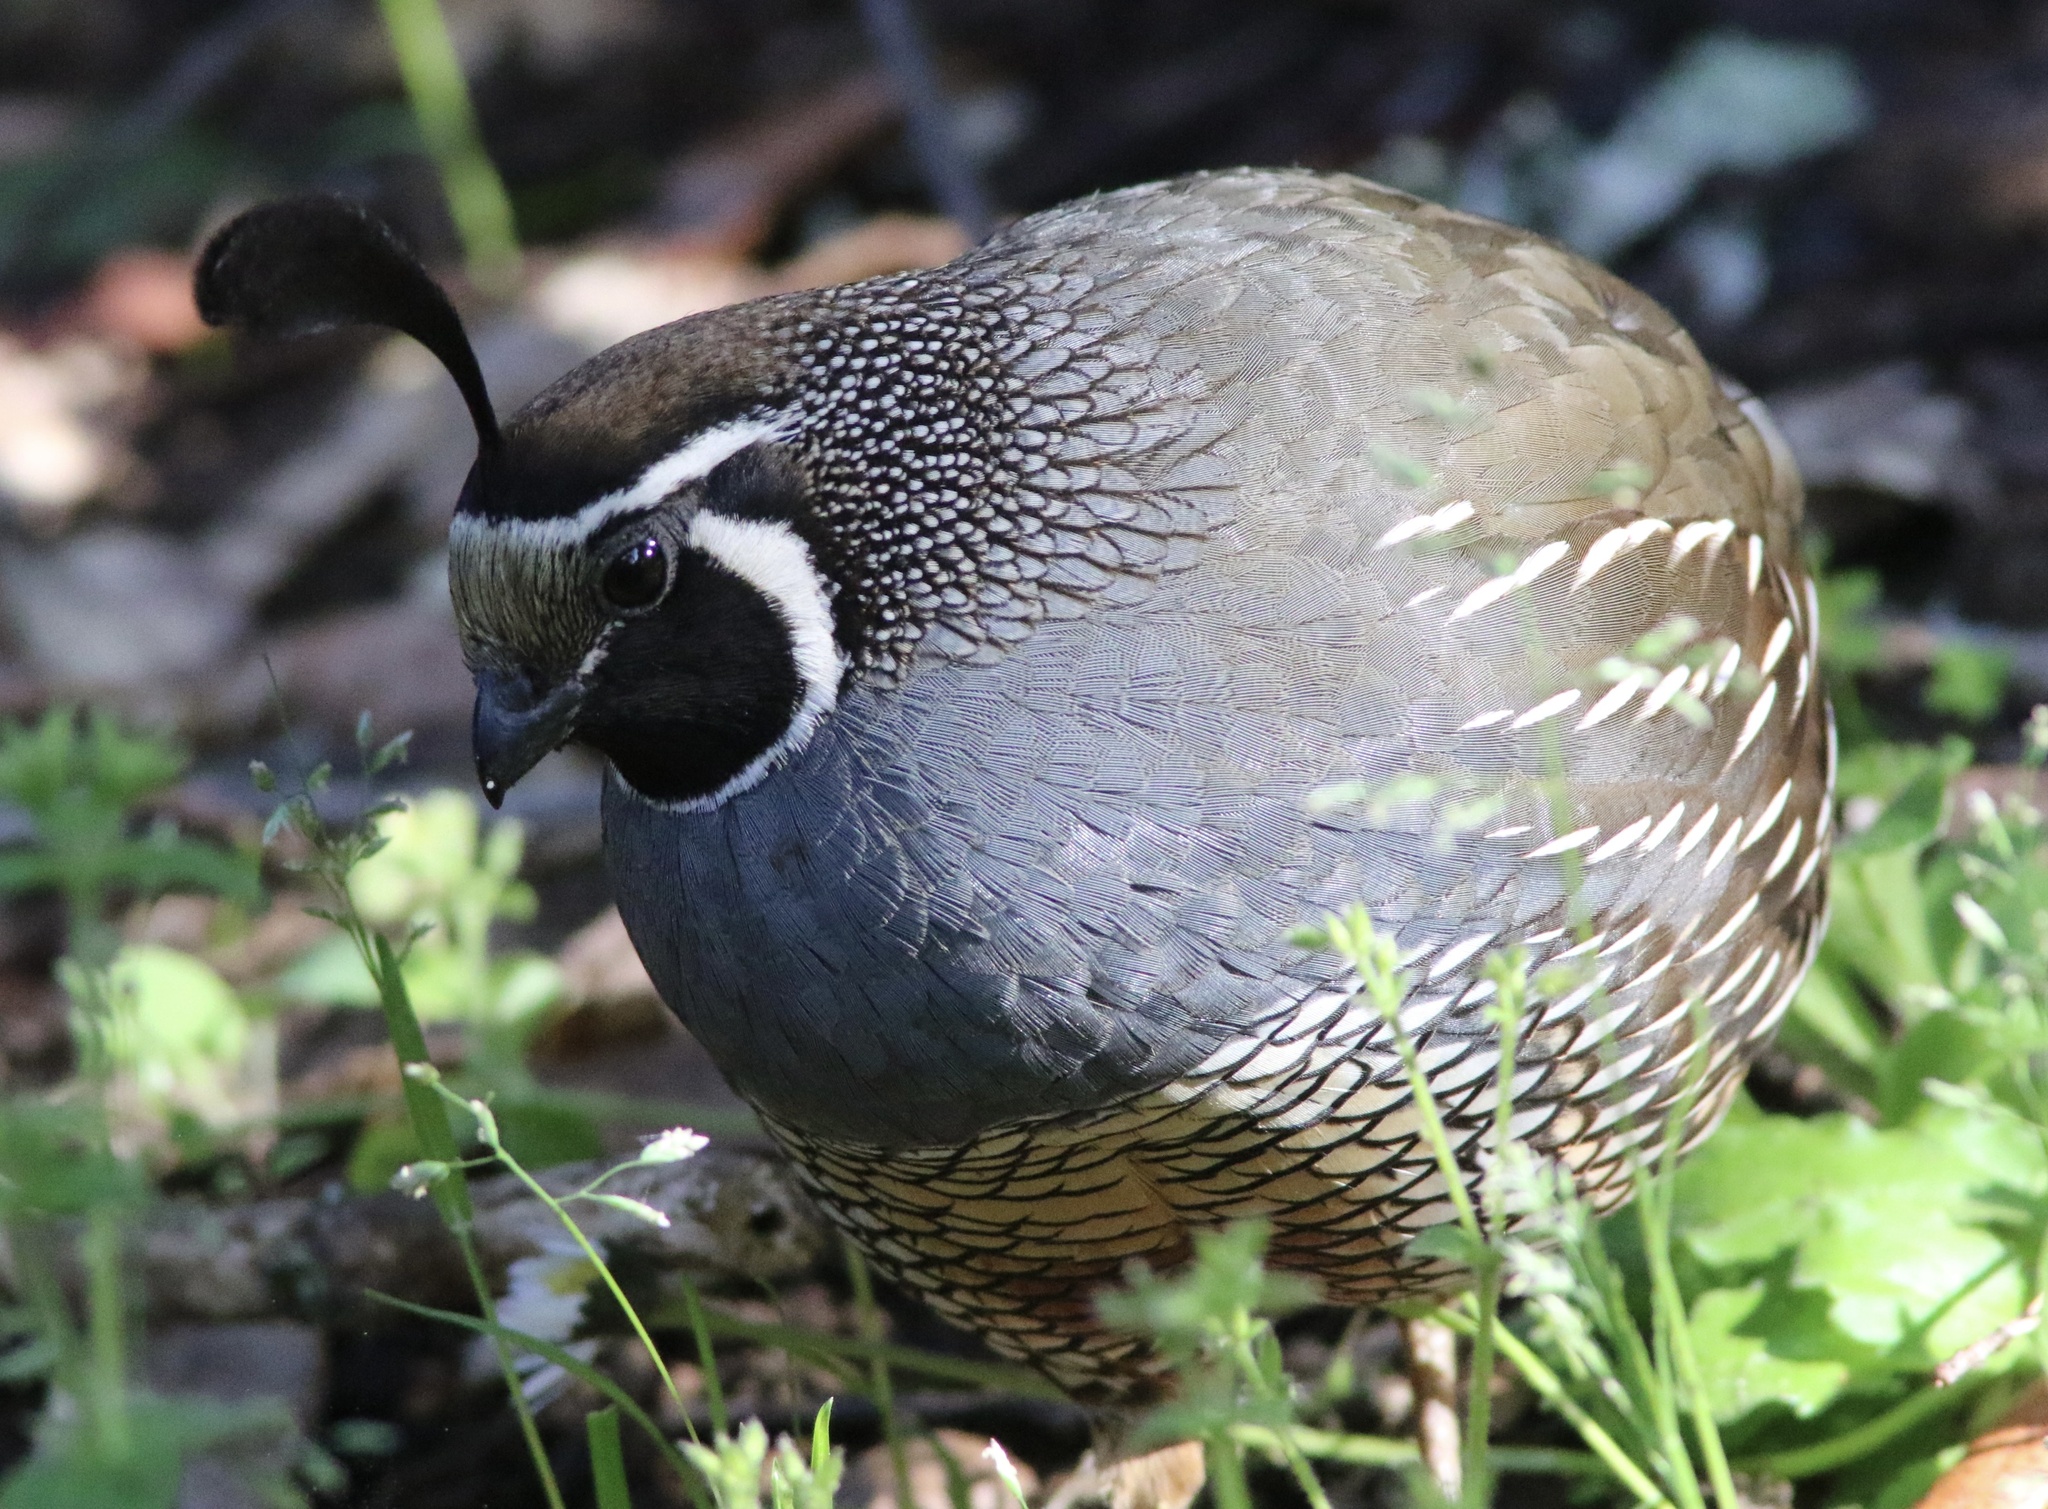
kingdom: Animalia
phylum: Chordata
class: Aves
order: Galliformes
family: Odontophoridae
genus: Callipepla
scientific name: Callipepla californica
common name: California quail
